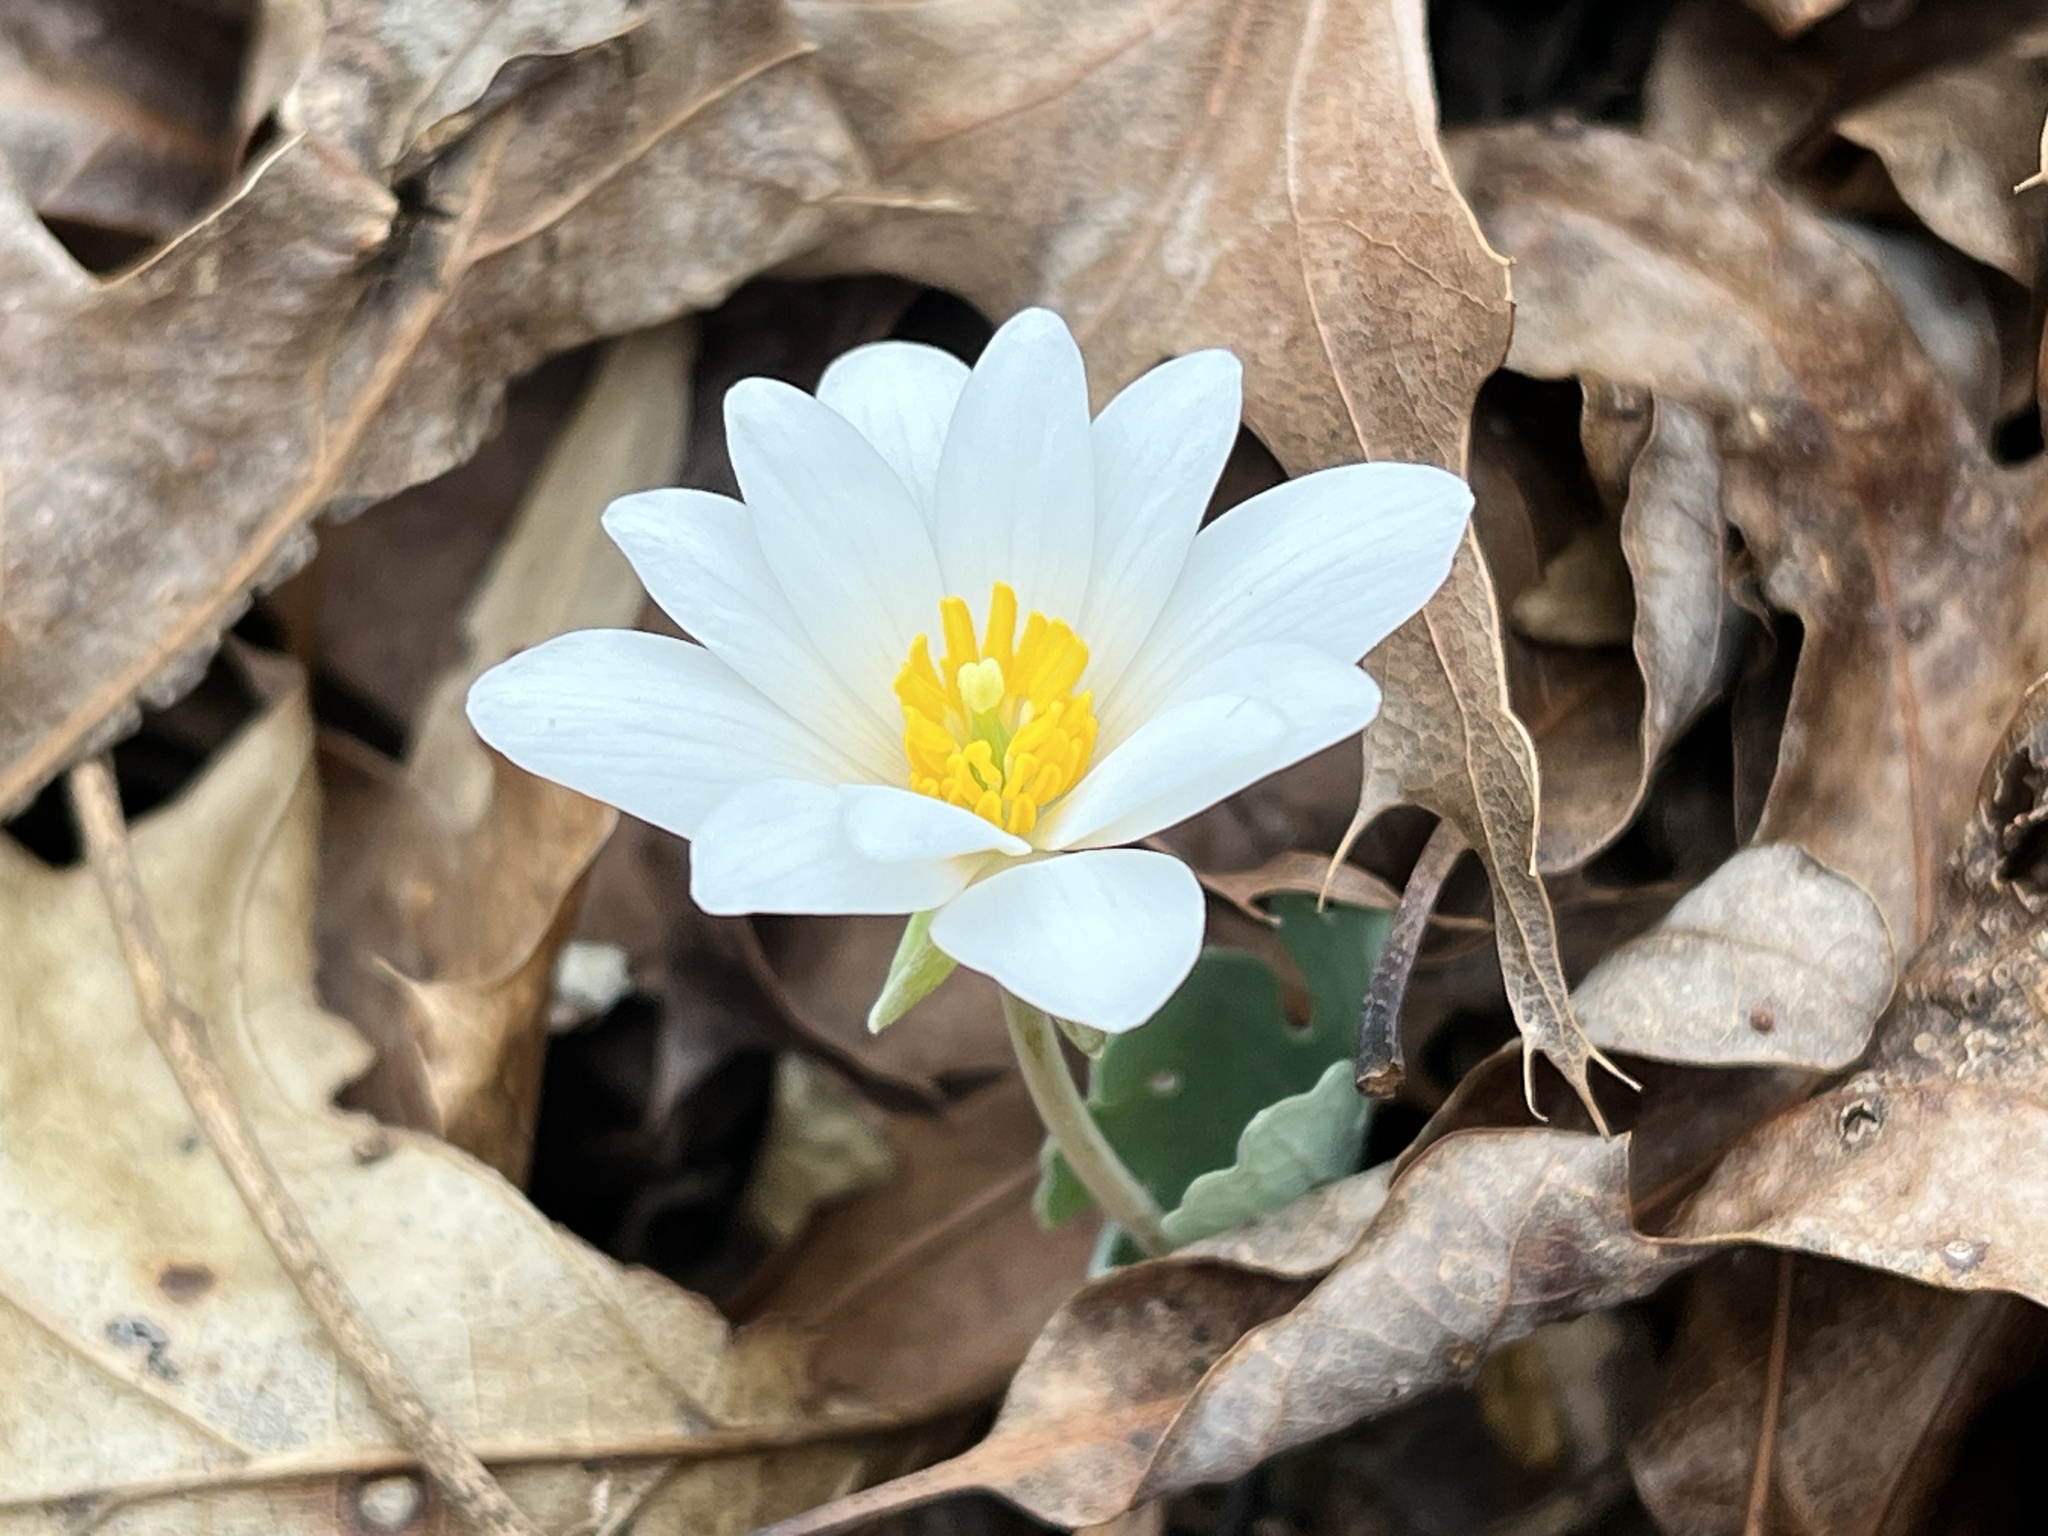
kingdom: Plantae
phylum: Tracheophyta
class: Magnoliopsida
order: Ranunculales
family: Papaveraceae
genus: Sanguinaria
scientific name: Sanguinaria canadensis
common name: Bloodroot
